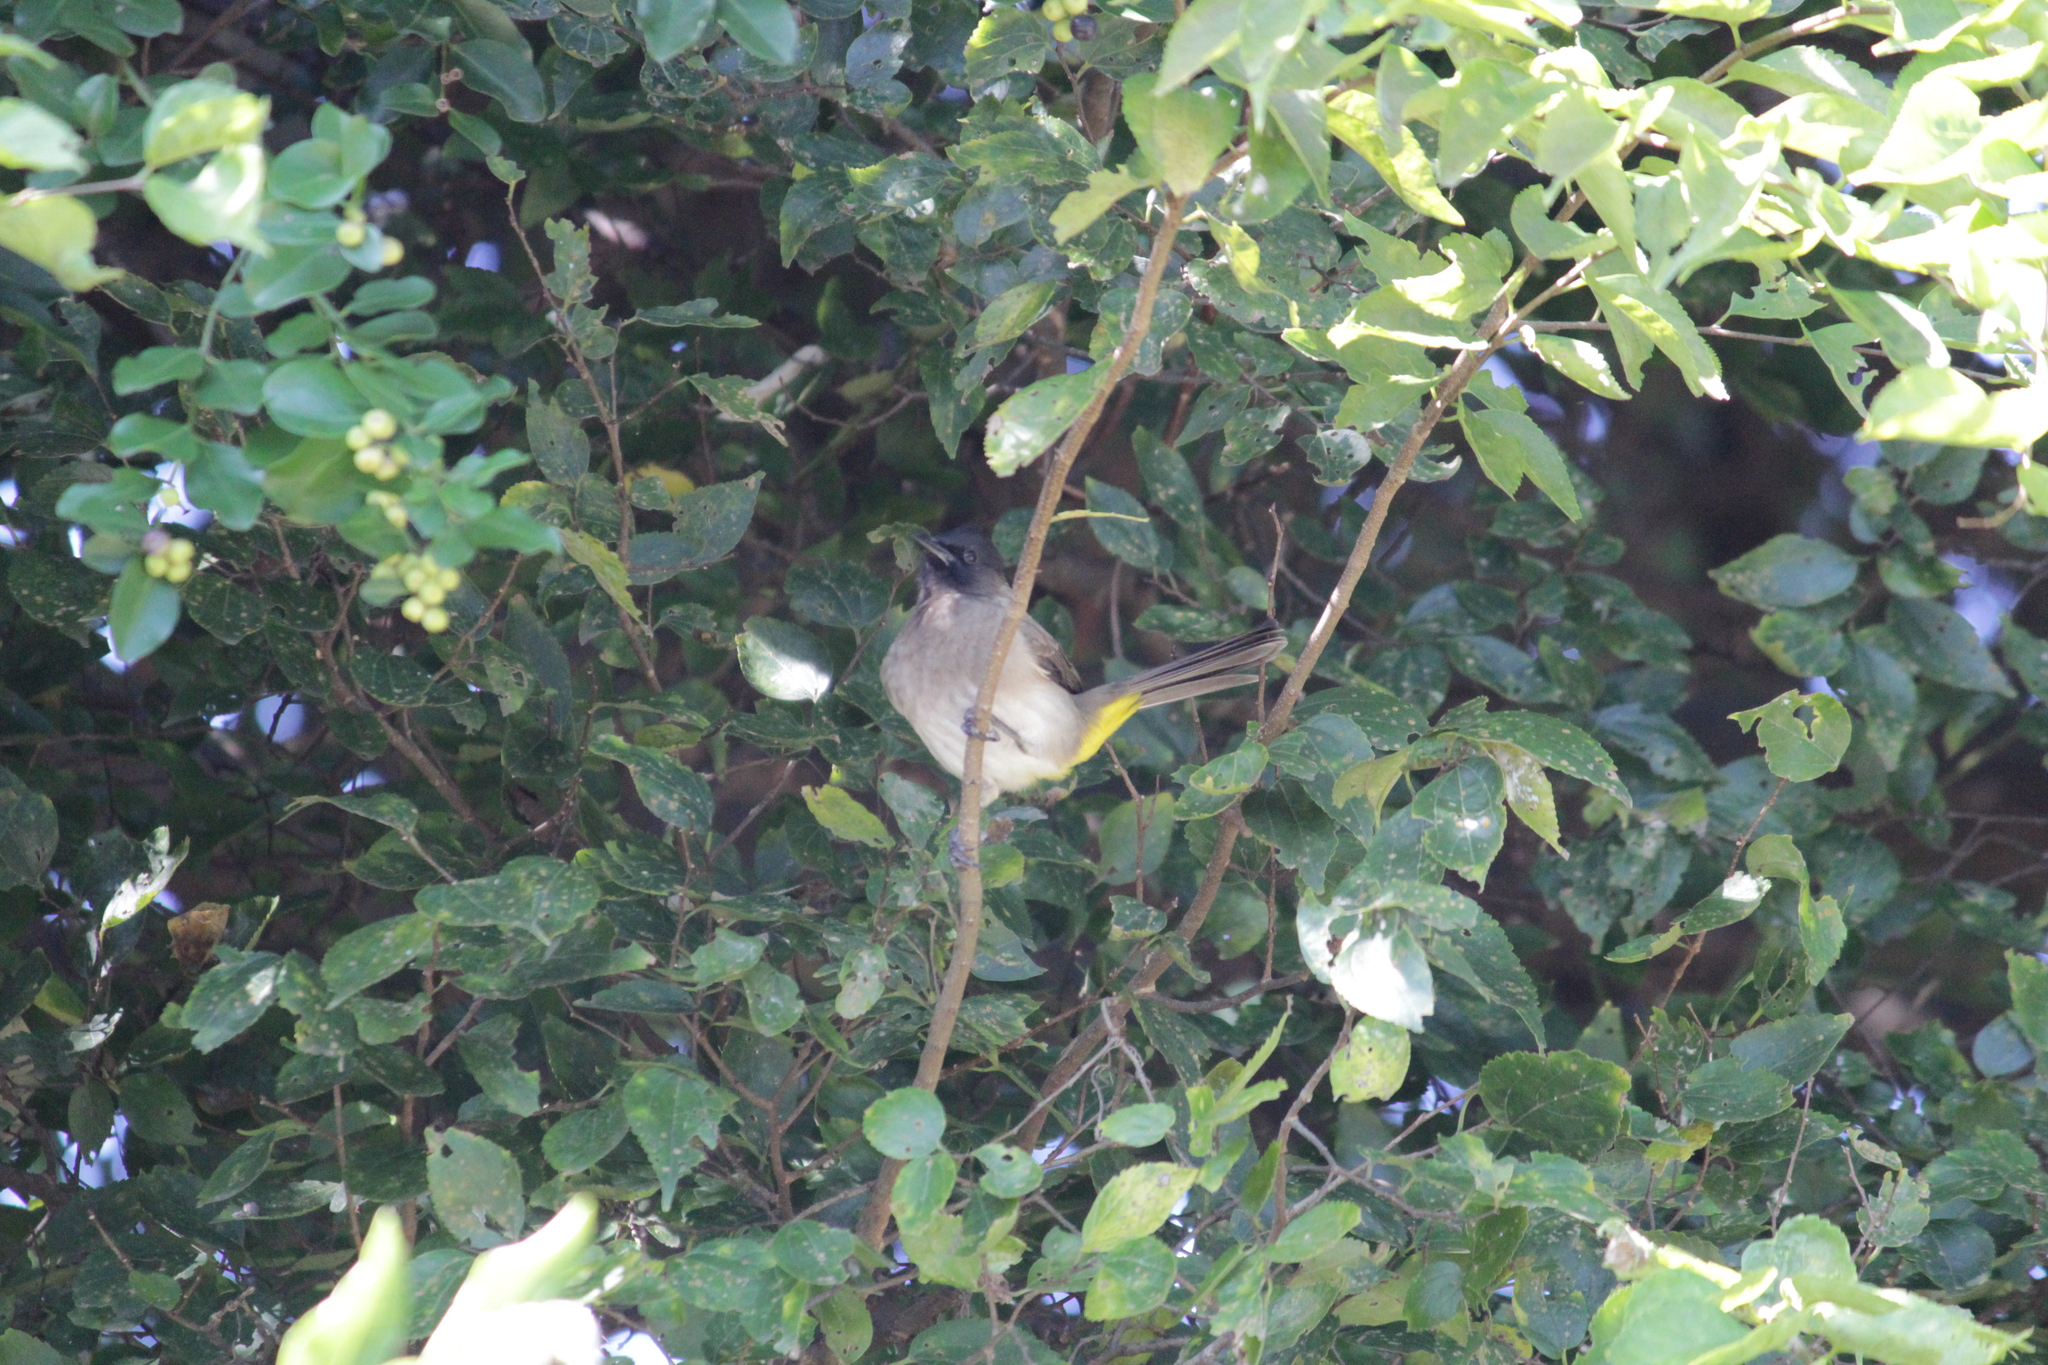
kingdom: Animalia
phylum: Chordata
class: Aves
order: Passeriformes
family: Pycnonotidae
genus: Pycnonotus
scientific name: Pycnonotus barbatus
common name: Common bulbul
